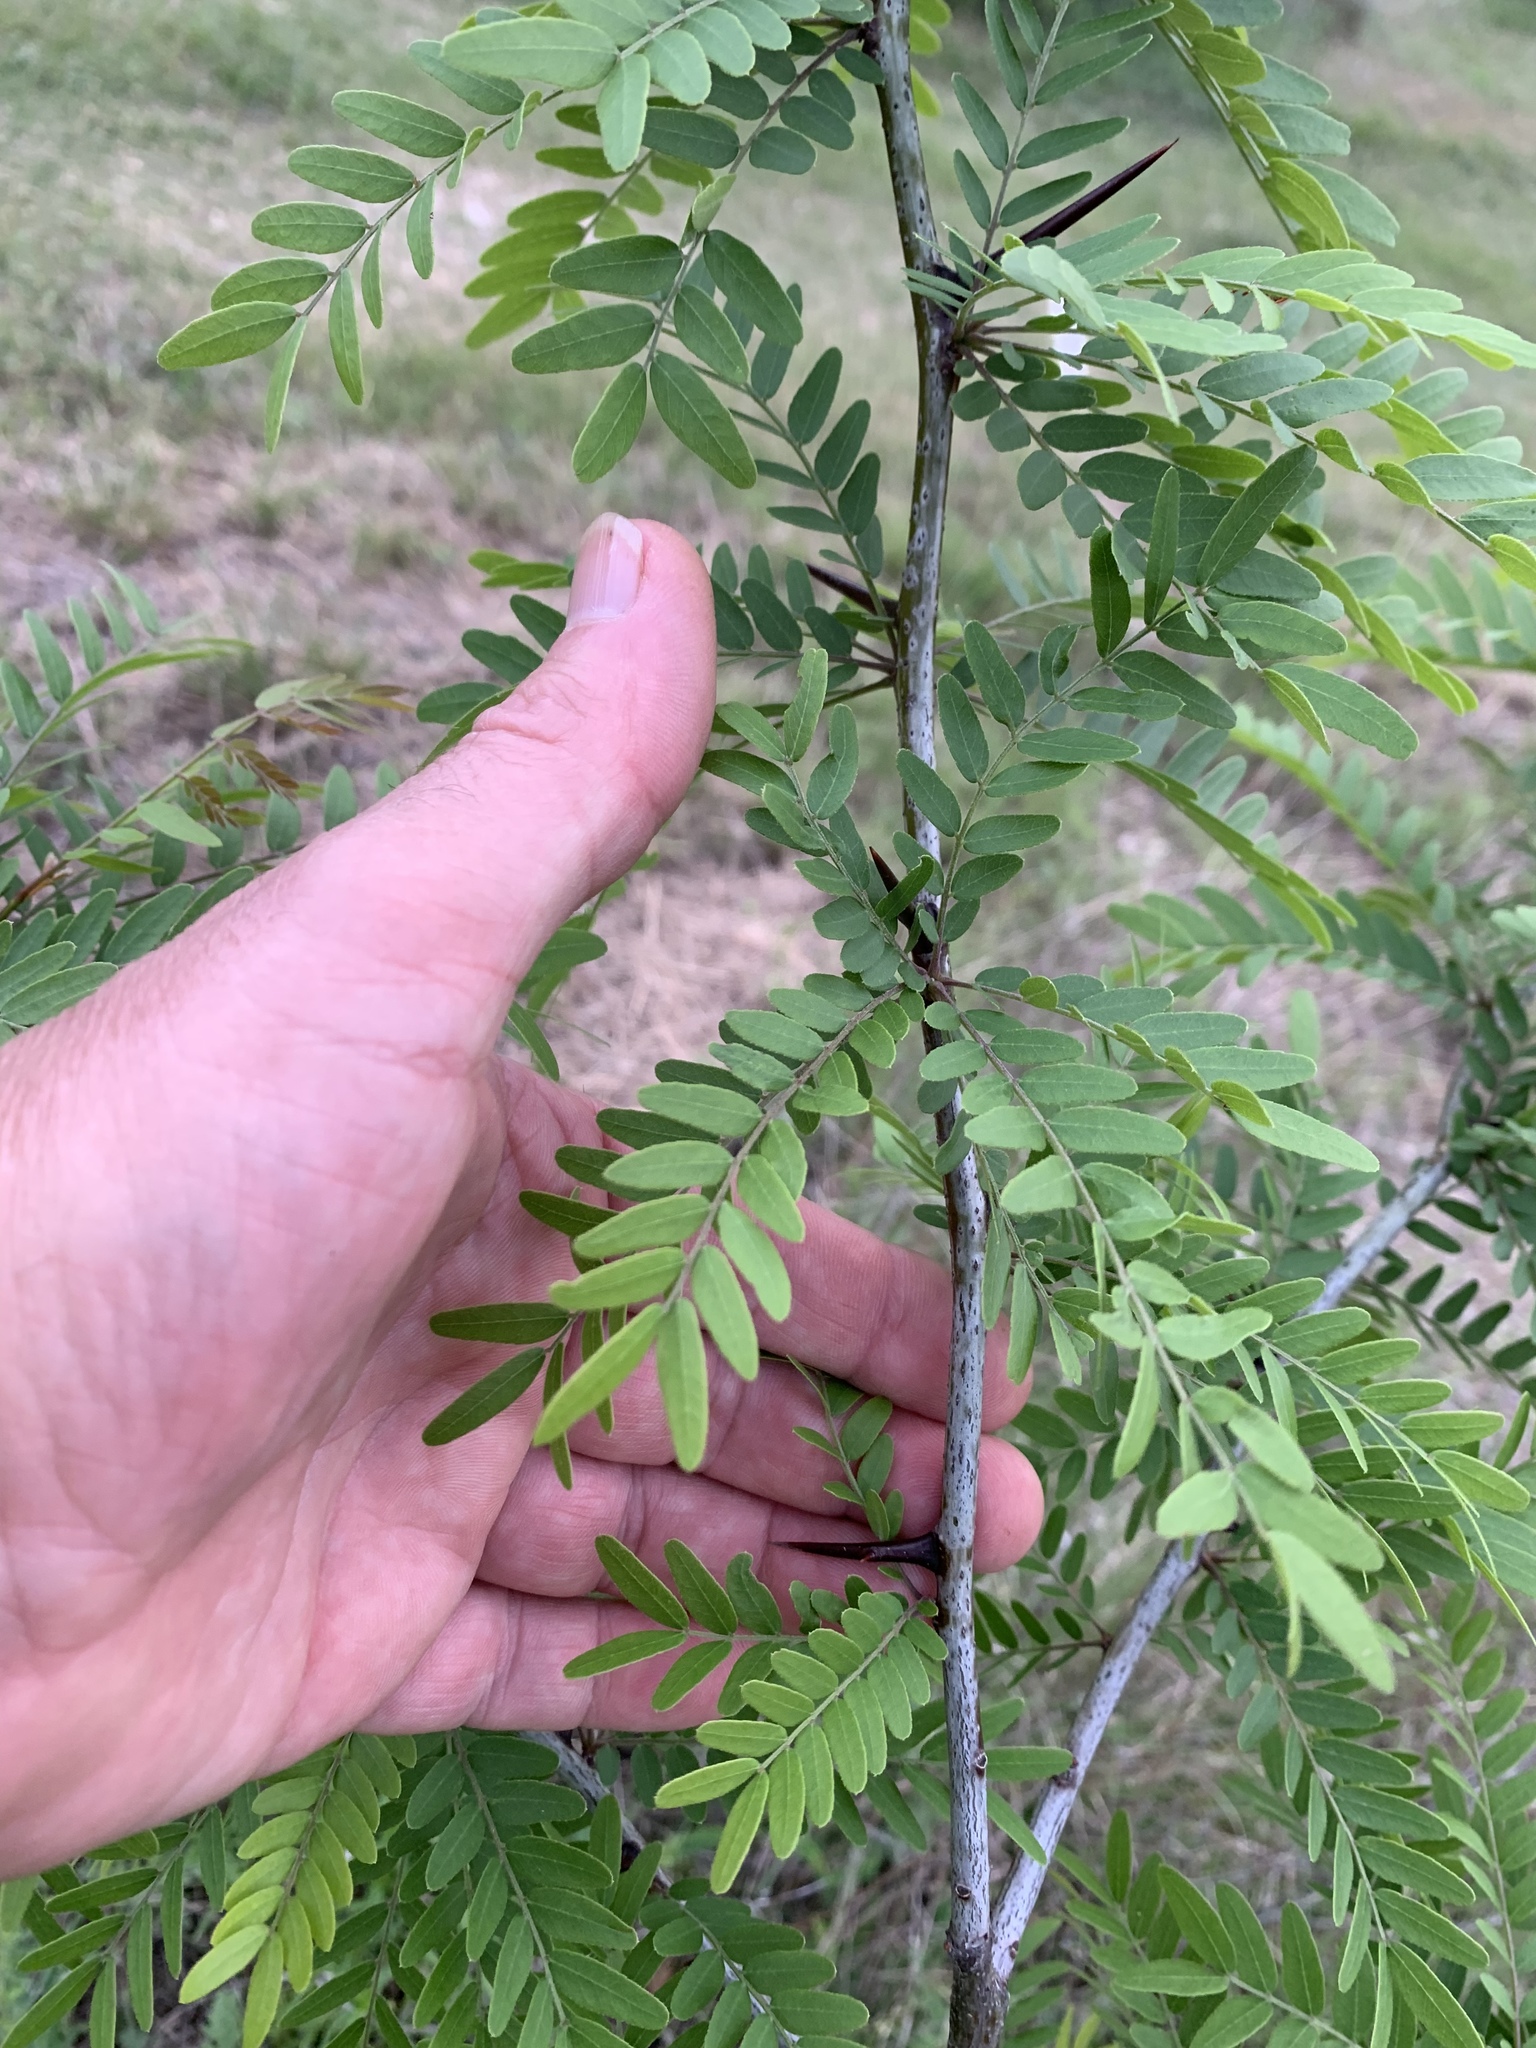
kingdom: Plantae
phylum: Tracheophyta
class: Magnoliopsida
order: Fabales
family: Fabaceae
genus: Gleditsia
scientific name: Gleditsia triacanthos
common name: Common honeylocust
